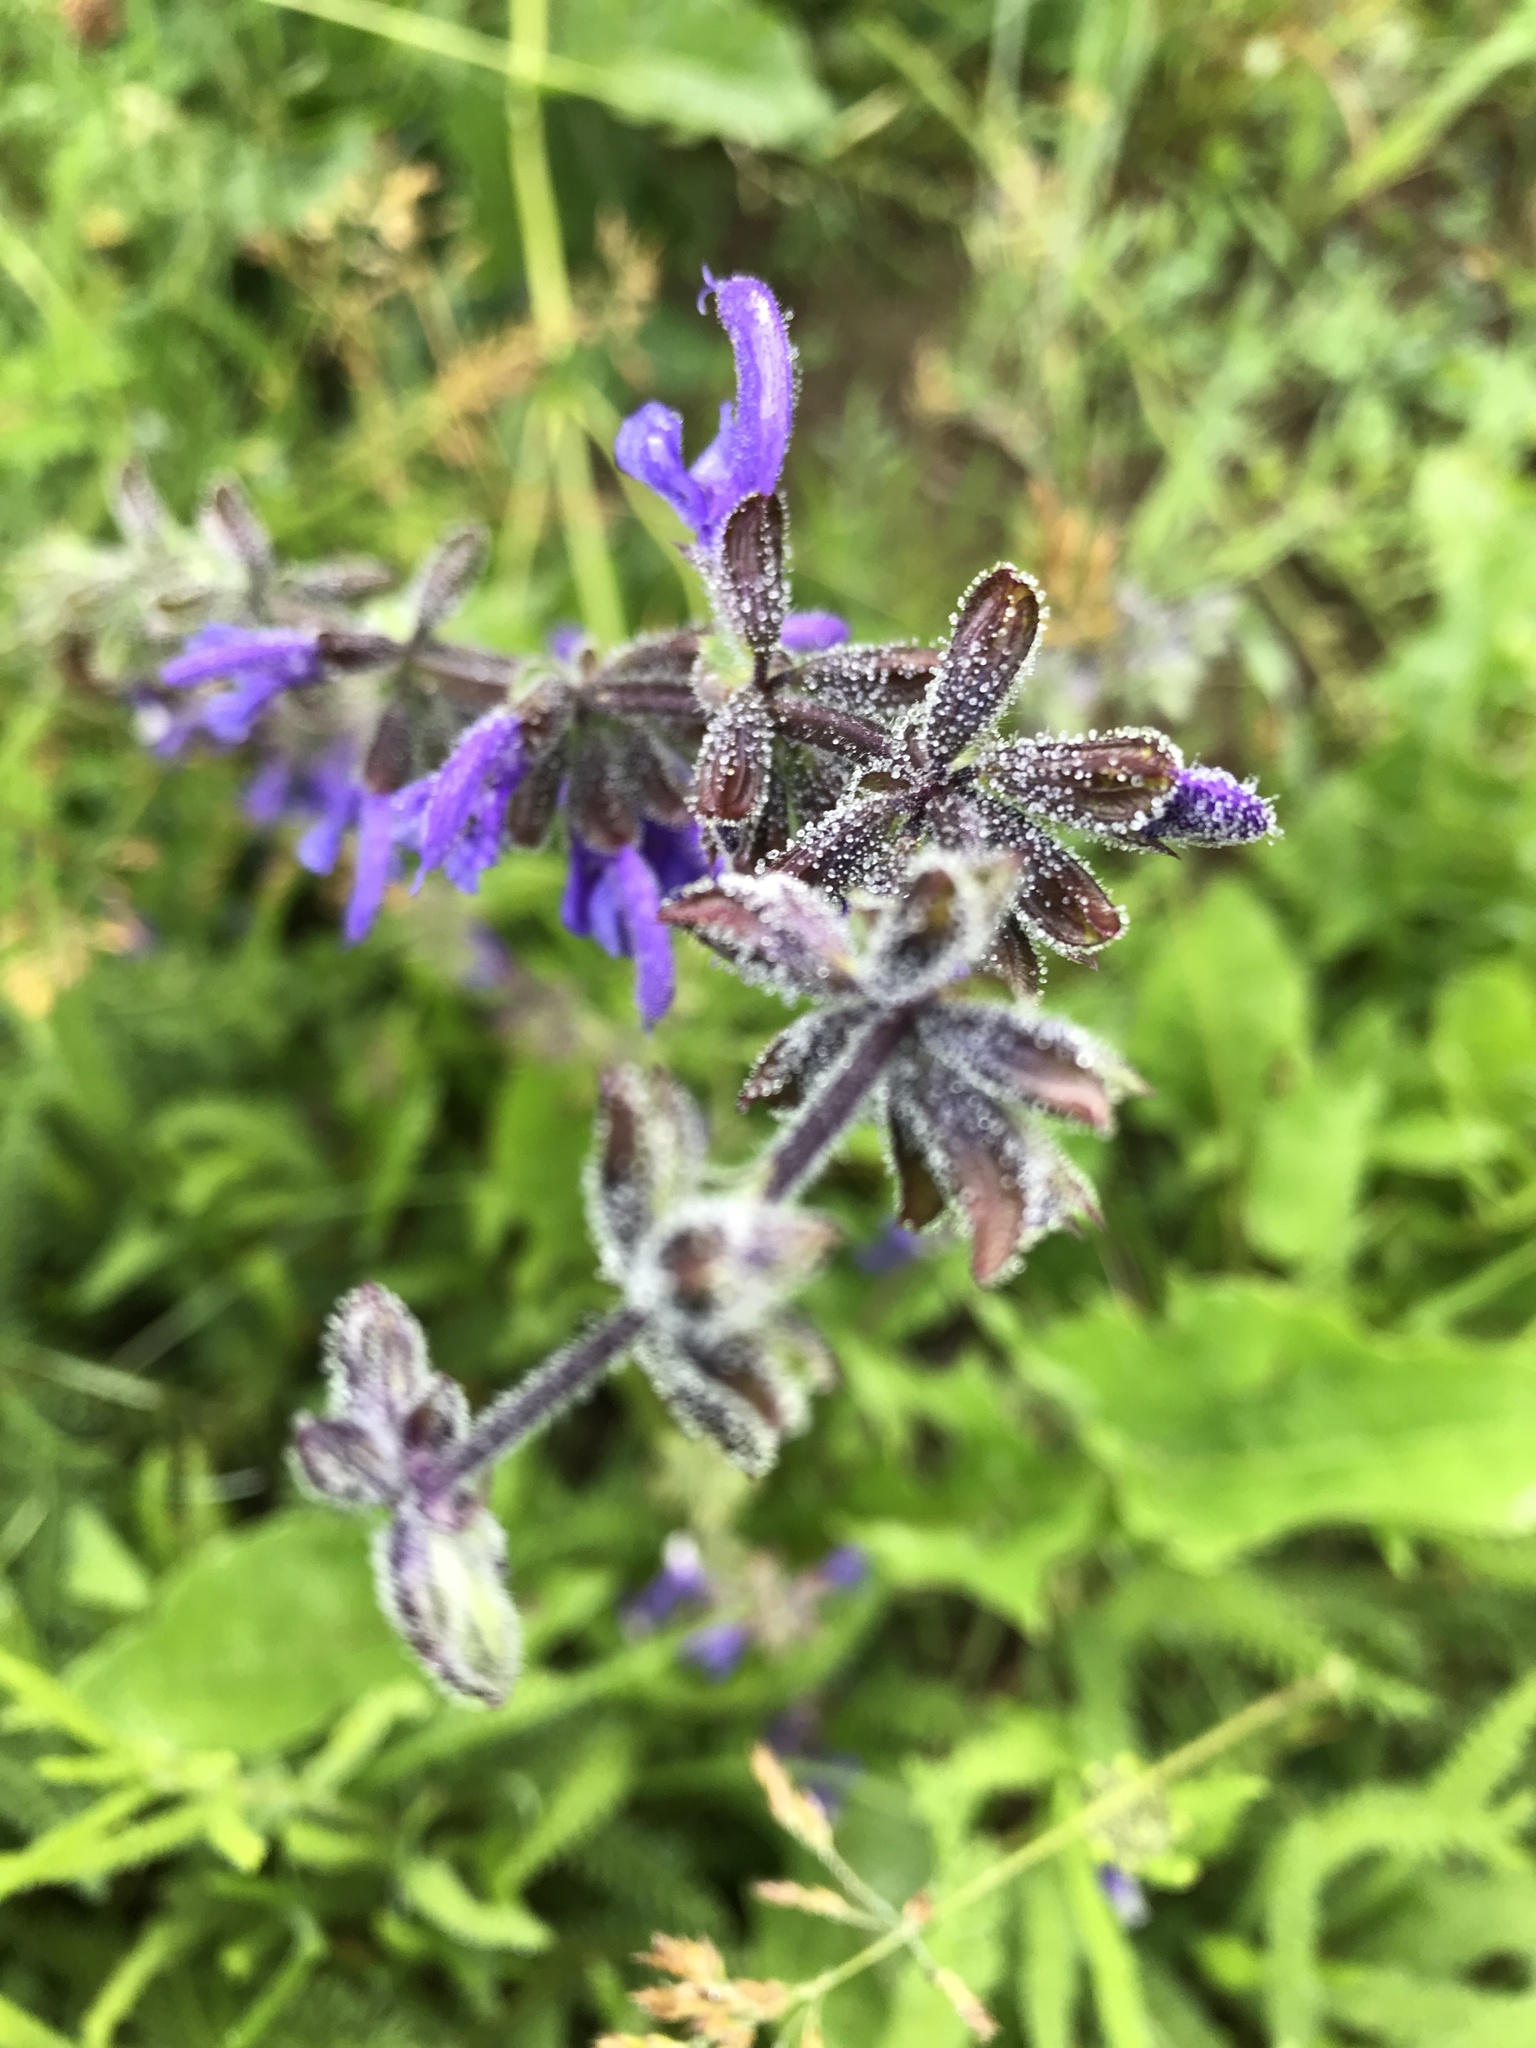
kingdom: Plantae
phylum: Tracheophyta
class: Magnoliopsida
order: Lamiales
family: Lamiaceae
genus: Salvia
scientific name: Salvia pratensis
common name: Meadow sage
